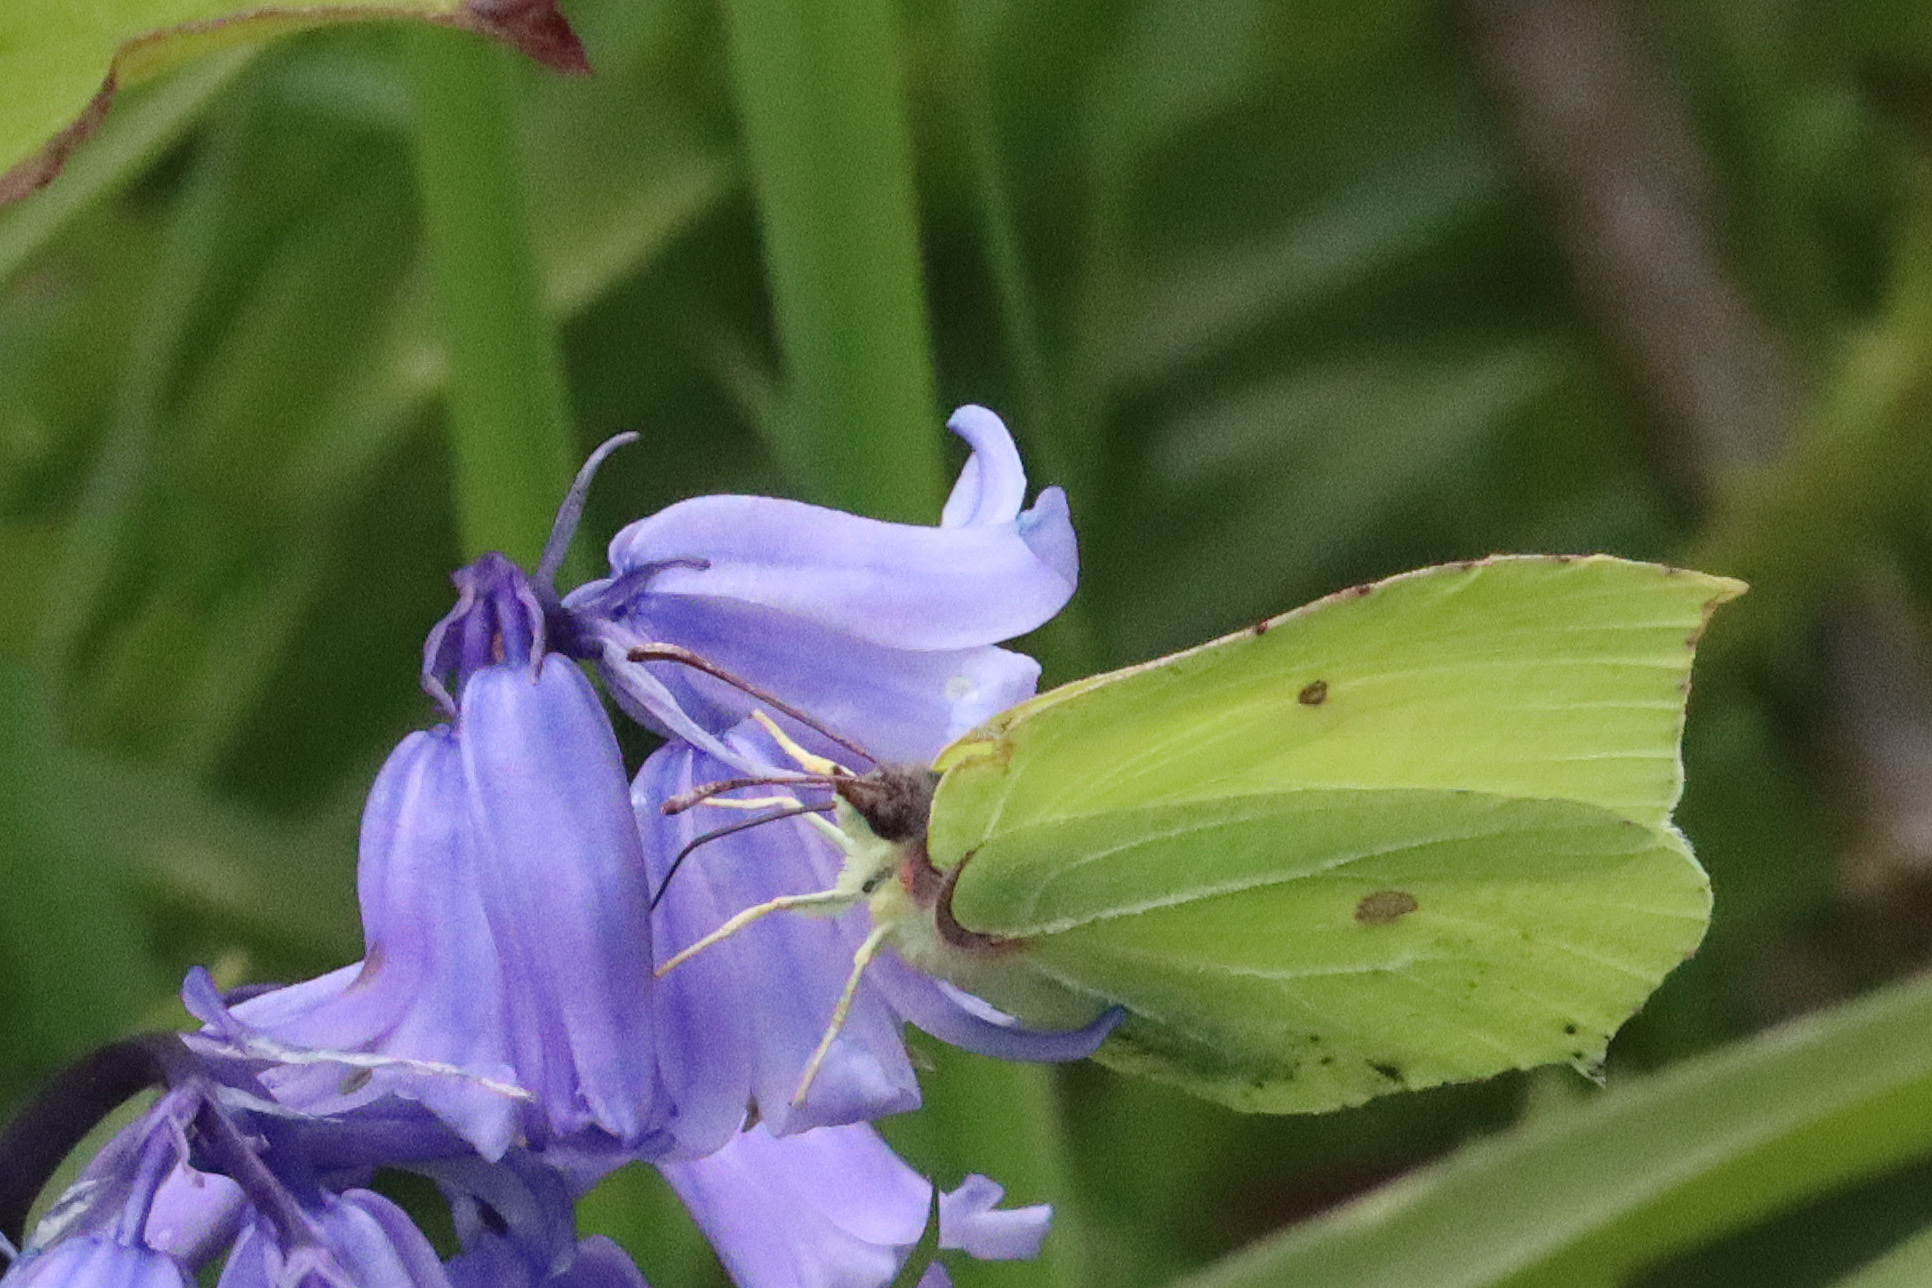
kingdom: Animalia
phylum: Arthropoda
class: Insecta
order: Lepidoptera
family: Pieridae
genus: Gonepteryx
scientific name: Gonepteryx rhamni
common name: Brimstone
